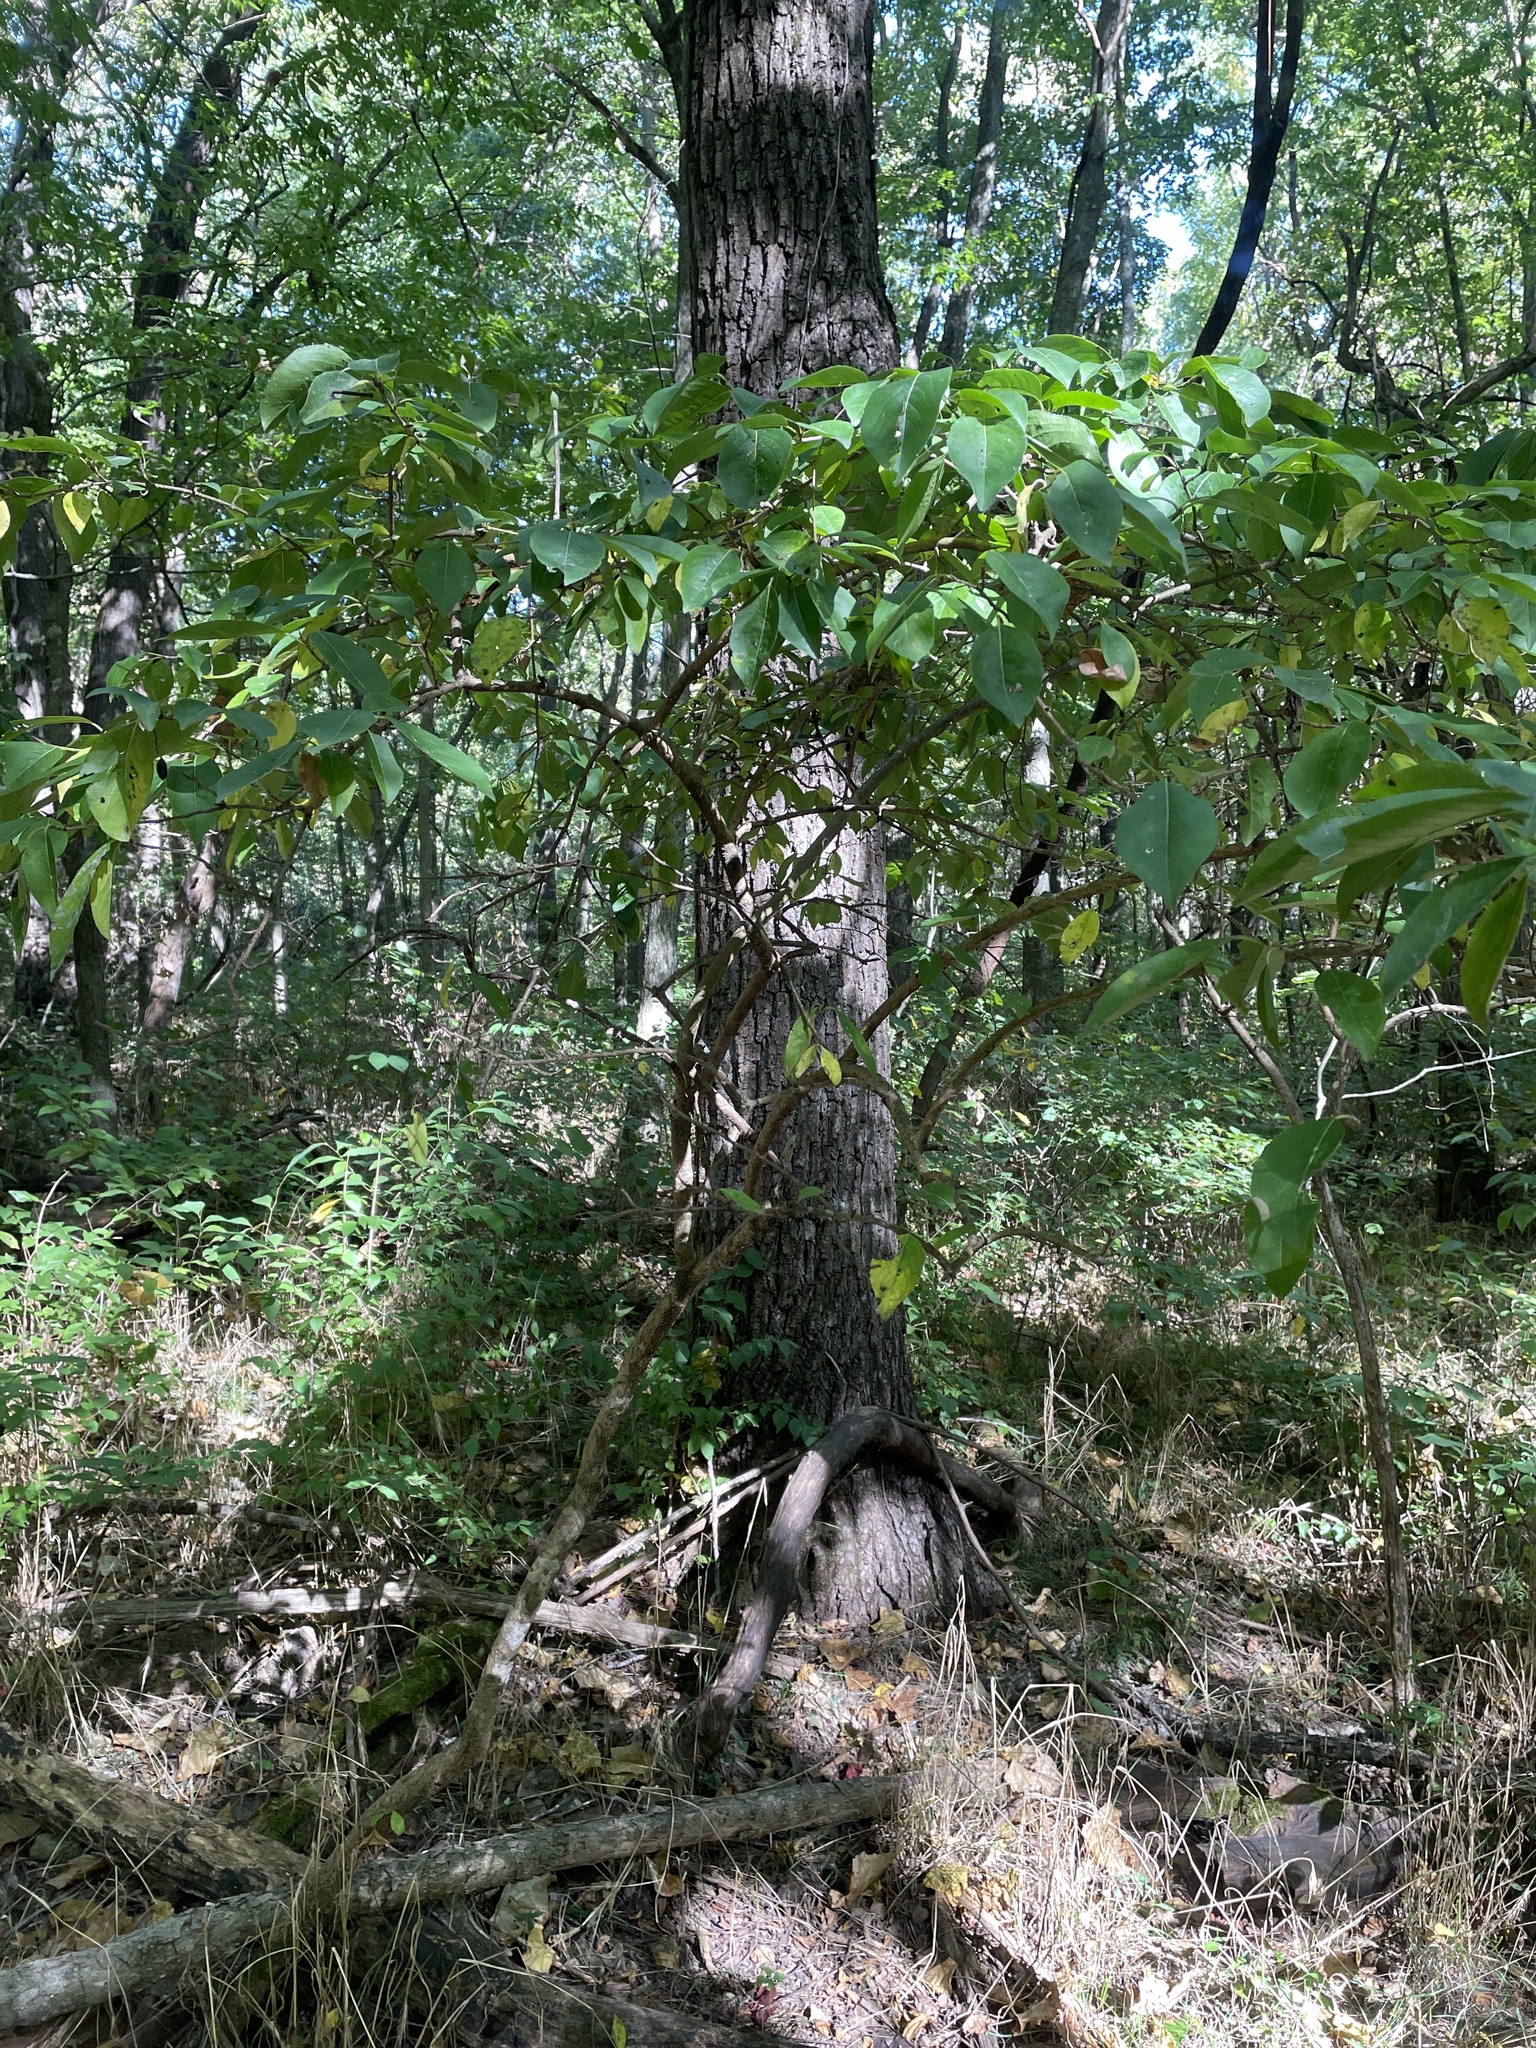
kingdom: Plantae
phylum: Tracheophyta
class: Magnoliopsida
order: Dipsacales
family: Viburnaceae
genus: Viburnum
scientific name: Viburnum prunifolium
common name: Black haw
